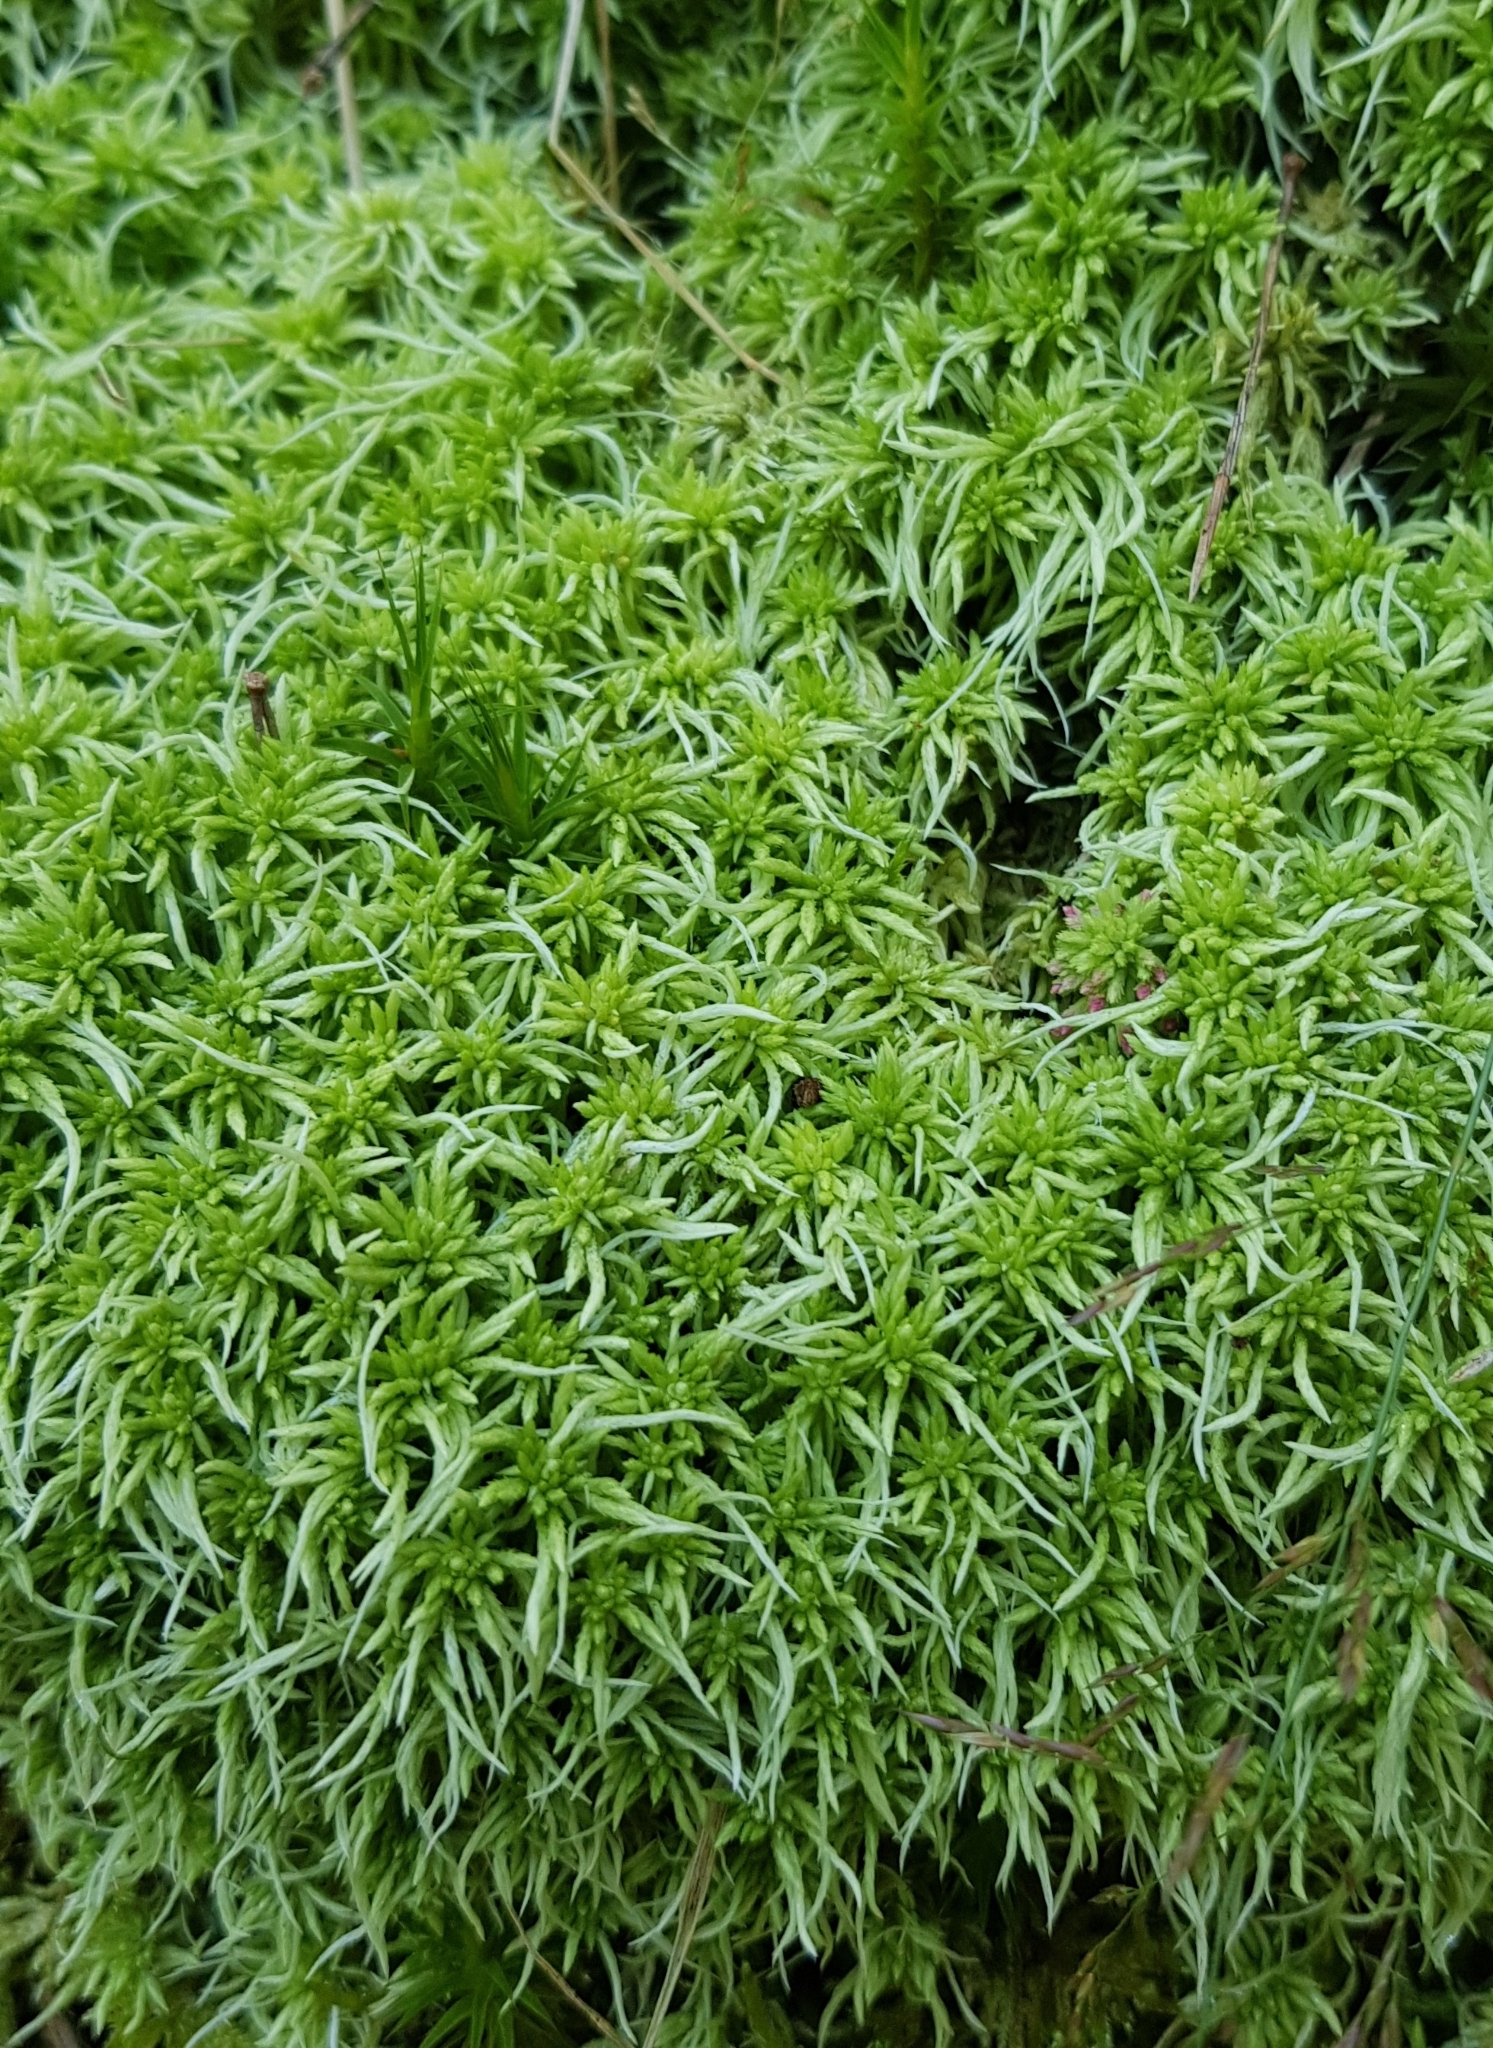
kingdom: Plantae
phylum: Bryophyta
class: Sphagnopsida
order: Sphagnales
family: Sphagnaceae
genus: Sphagnum
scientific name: Sphagnum fimbriatum
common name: Fringed peat moss
